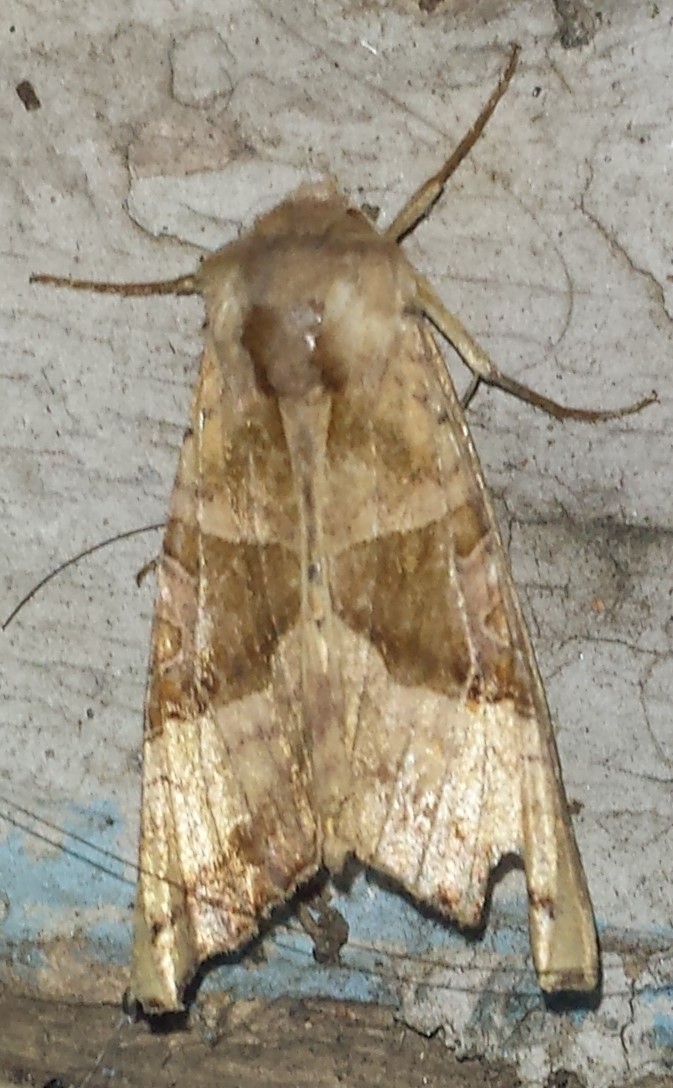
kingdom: Animalia
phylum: Arthropoda
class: Insecta
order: Lepidoptera
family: Noctuidae
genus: Phlogophora
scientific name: Phlogophora periculosa
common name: Brown angle shades
